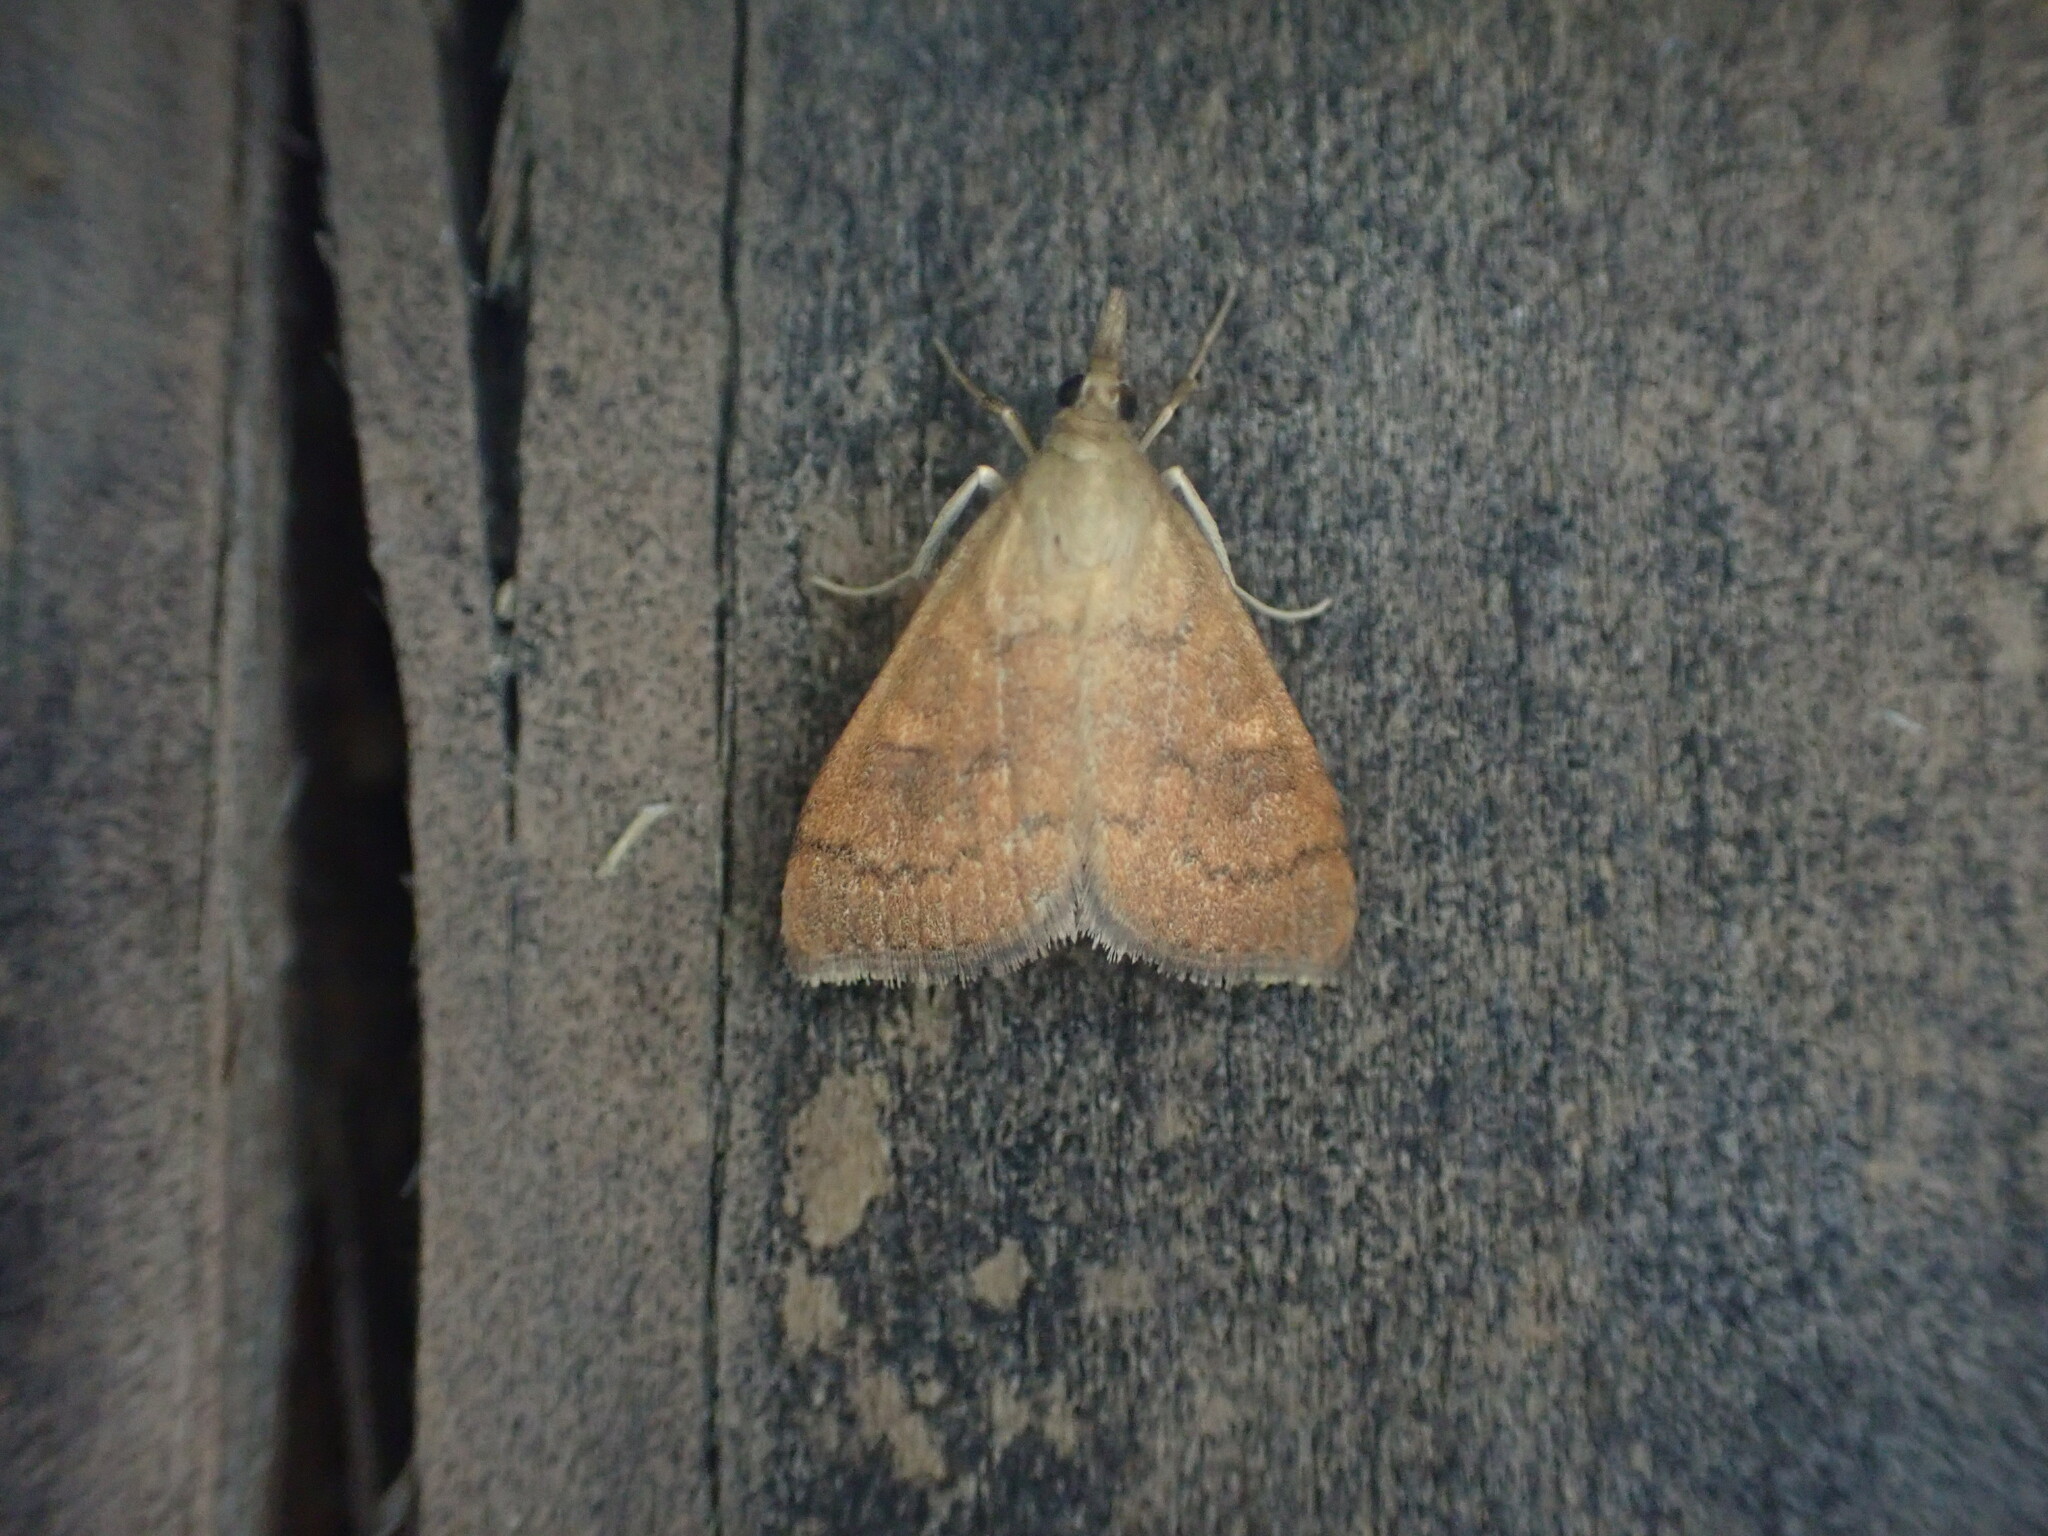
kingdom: Animalia
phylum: Arthropoda
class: Insecta
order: Lepidoptera
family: Crambidae
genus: Udea
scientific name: Udea Mnesictena flavidalis
